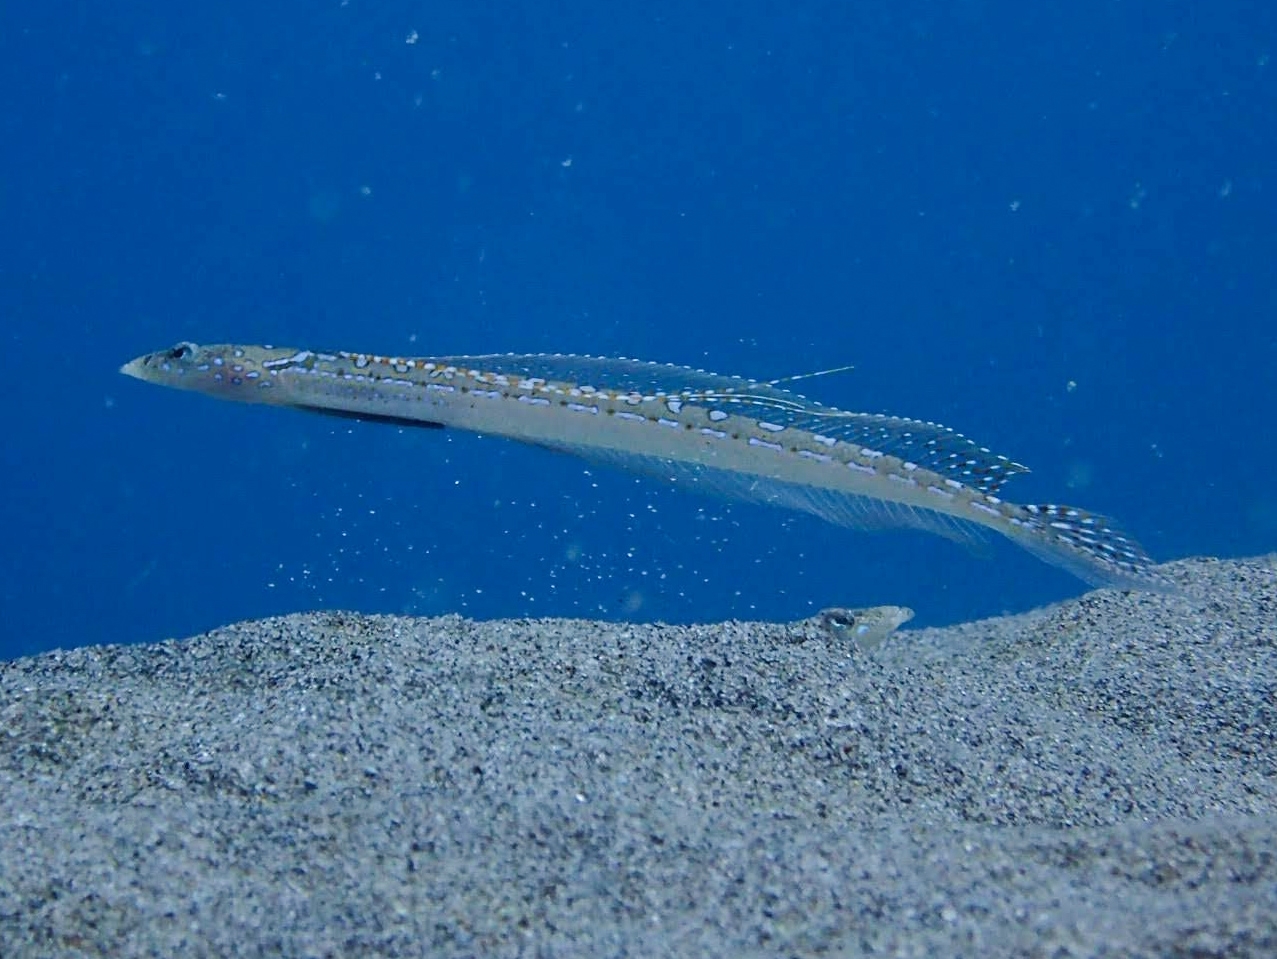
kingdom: Animalia
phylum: Chordata
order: Perciformes
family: Trichonotidae
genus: Trichonotus
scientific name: Trichonotus elegans
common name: Elegant sand-diver
